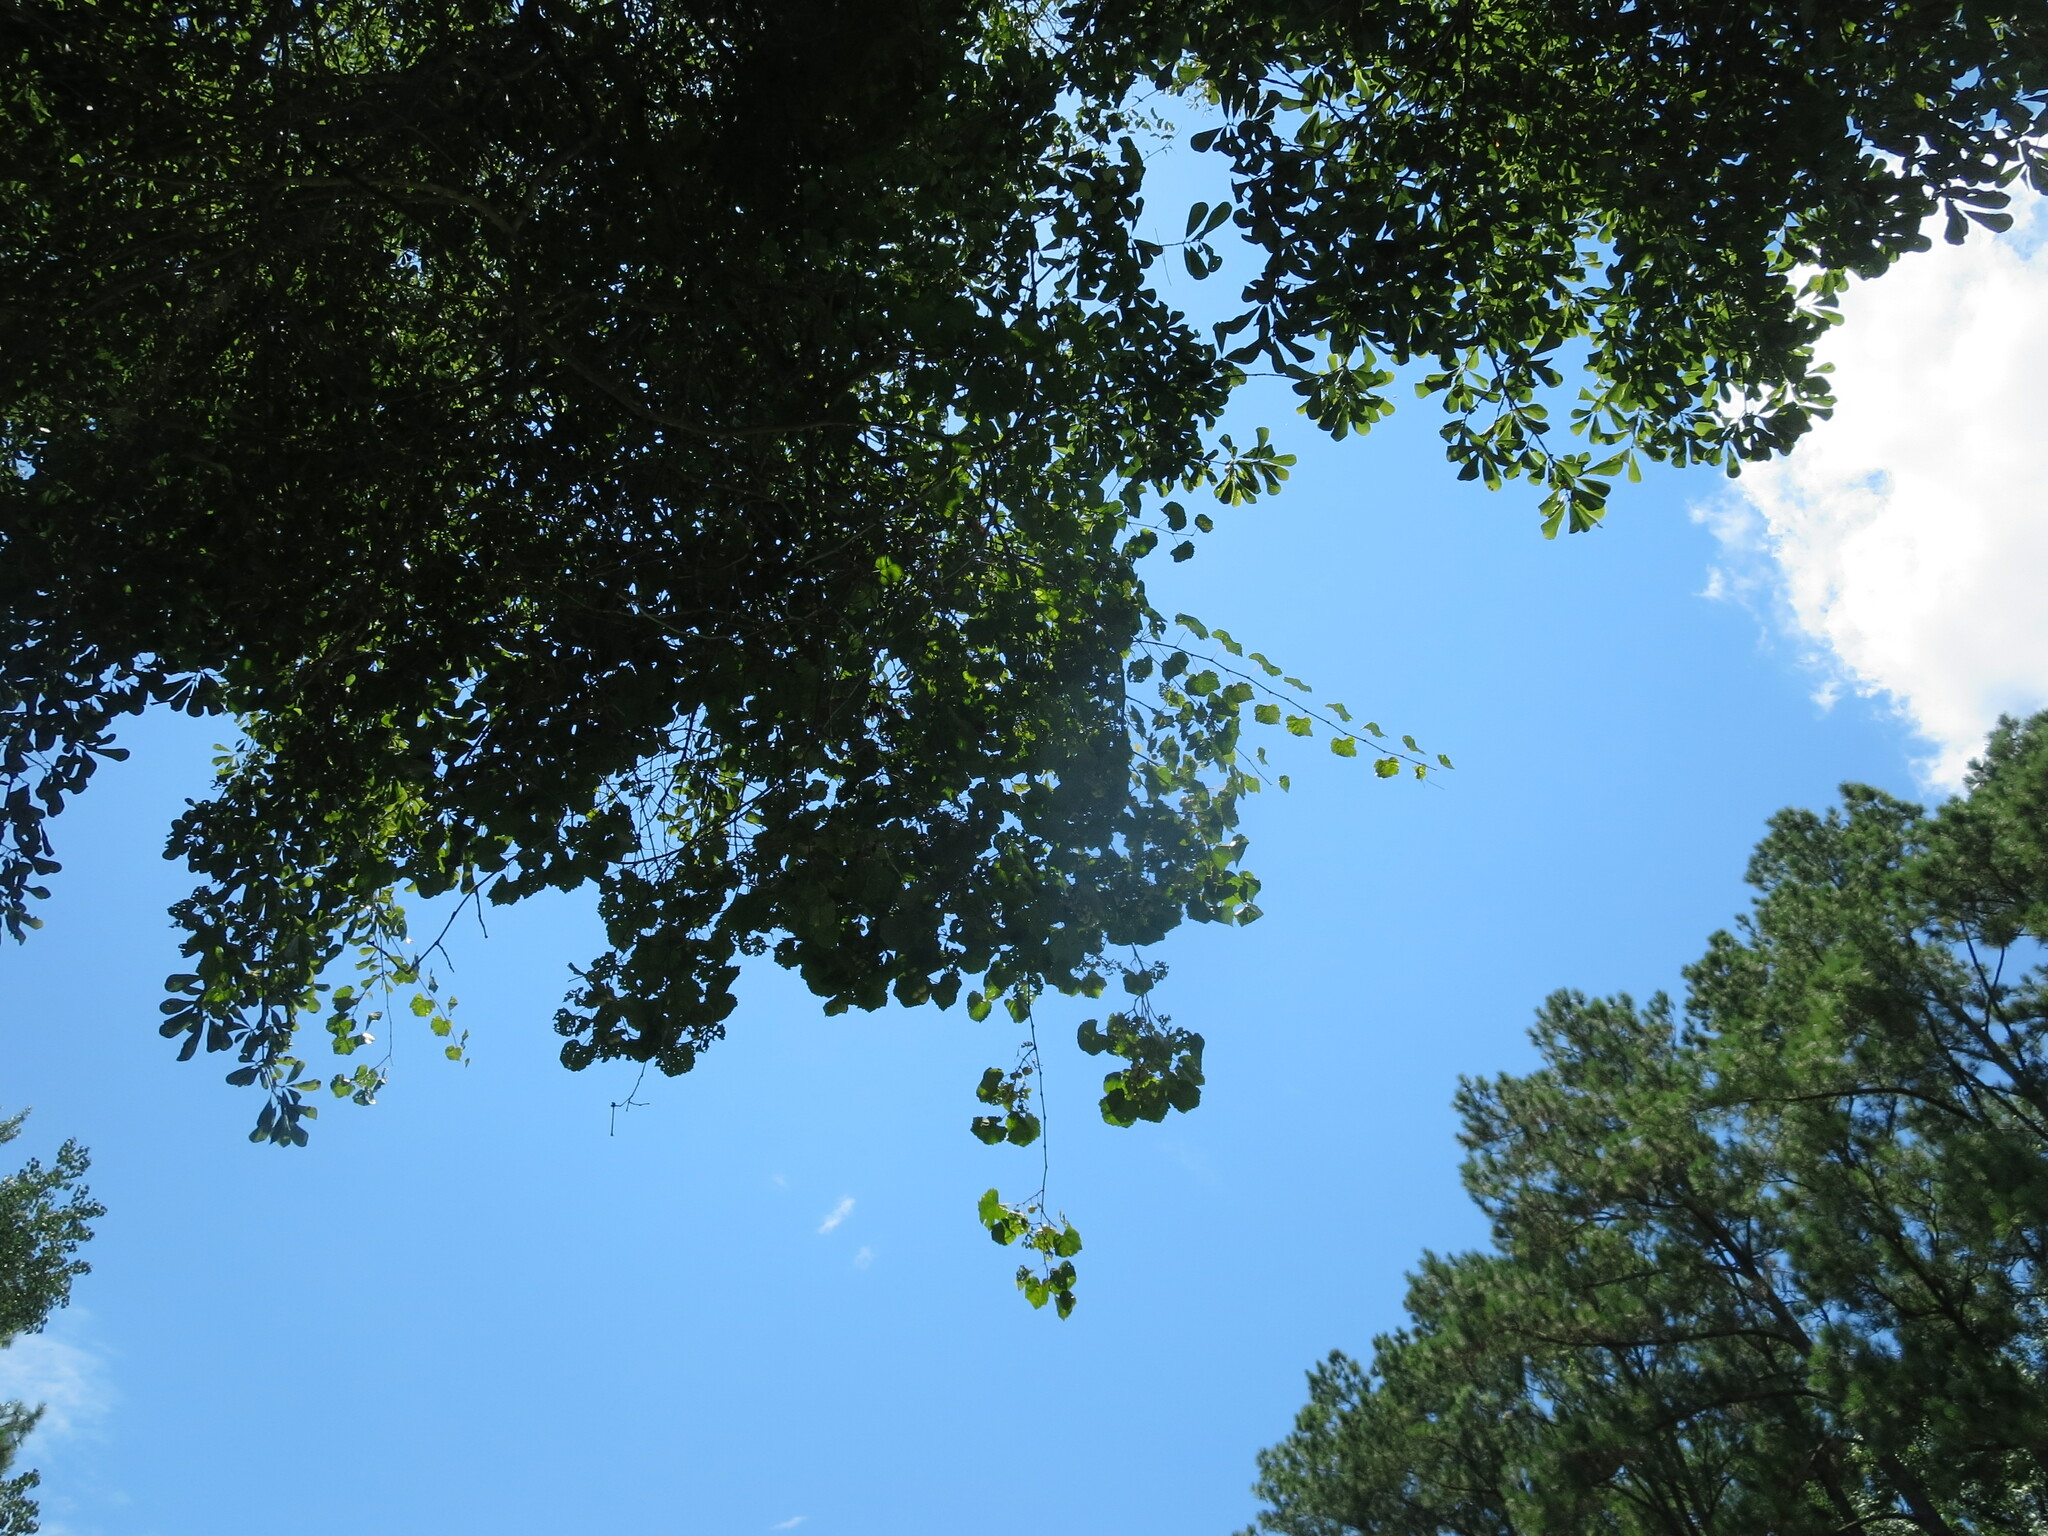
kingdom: Plantae
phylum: Tracheophyta
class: Magnoliopsida
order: Vitales
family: Vitaceae
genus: Vitis
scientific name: Vitis rotundifolia
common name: Muscadine grape
